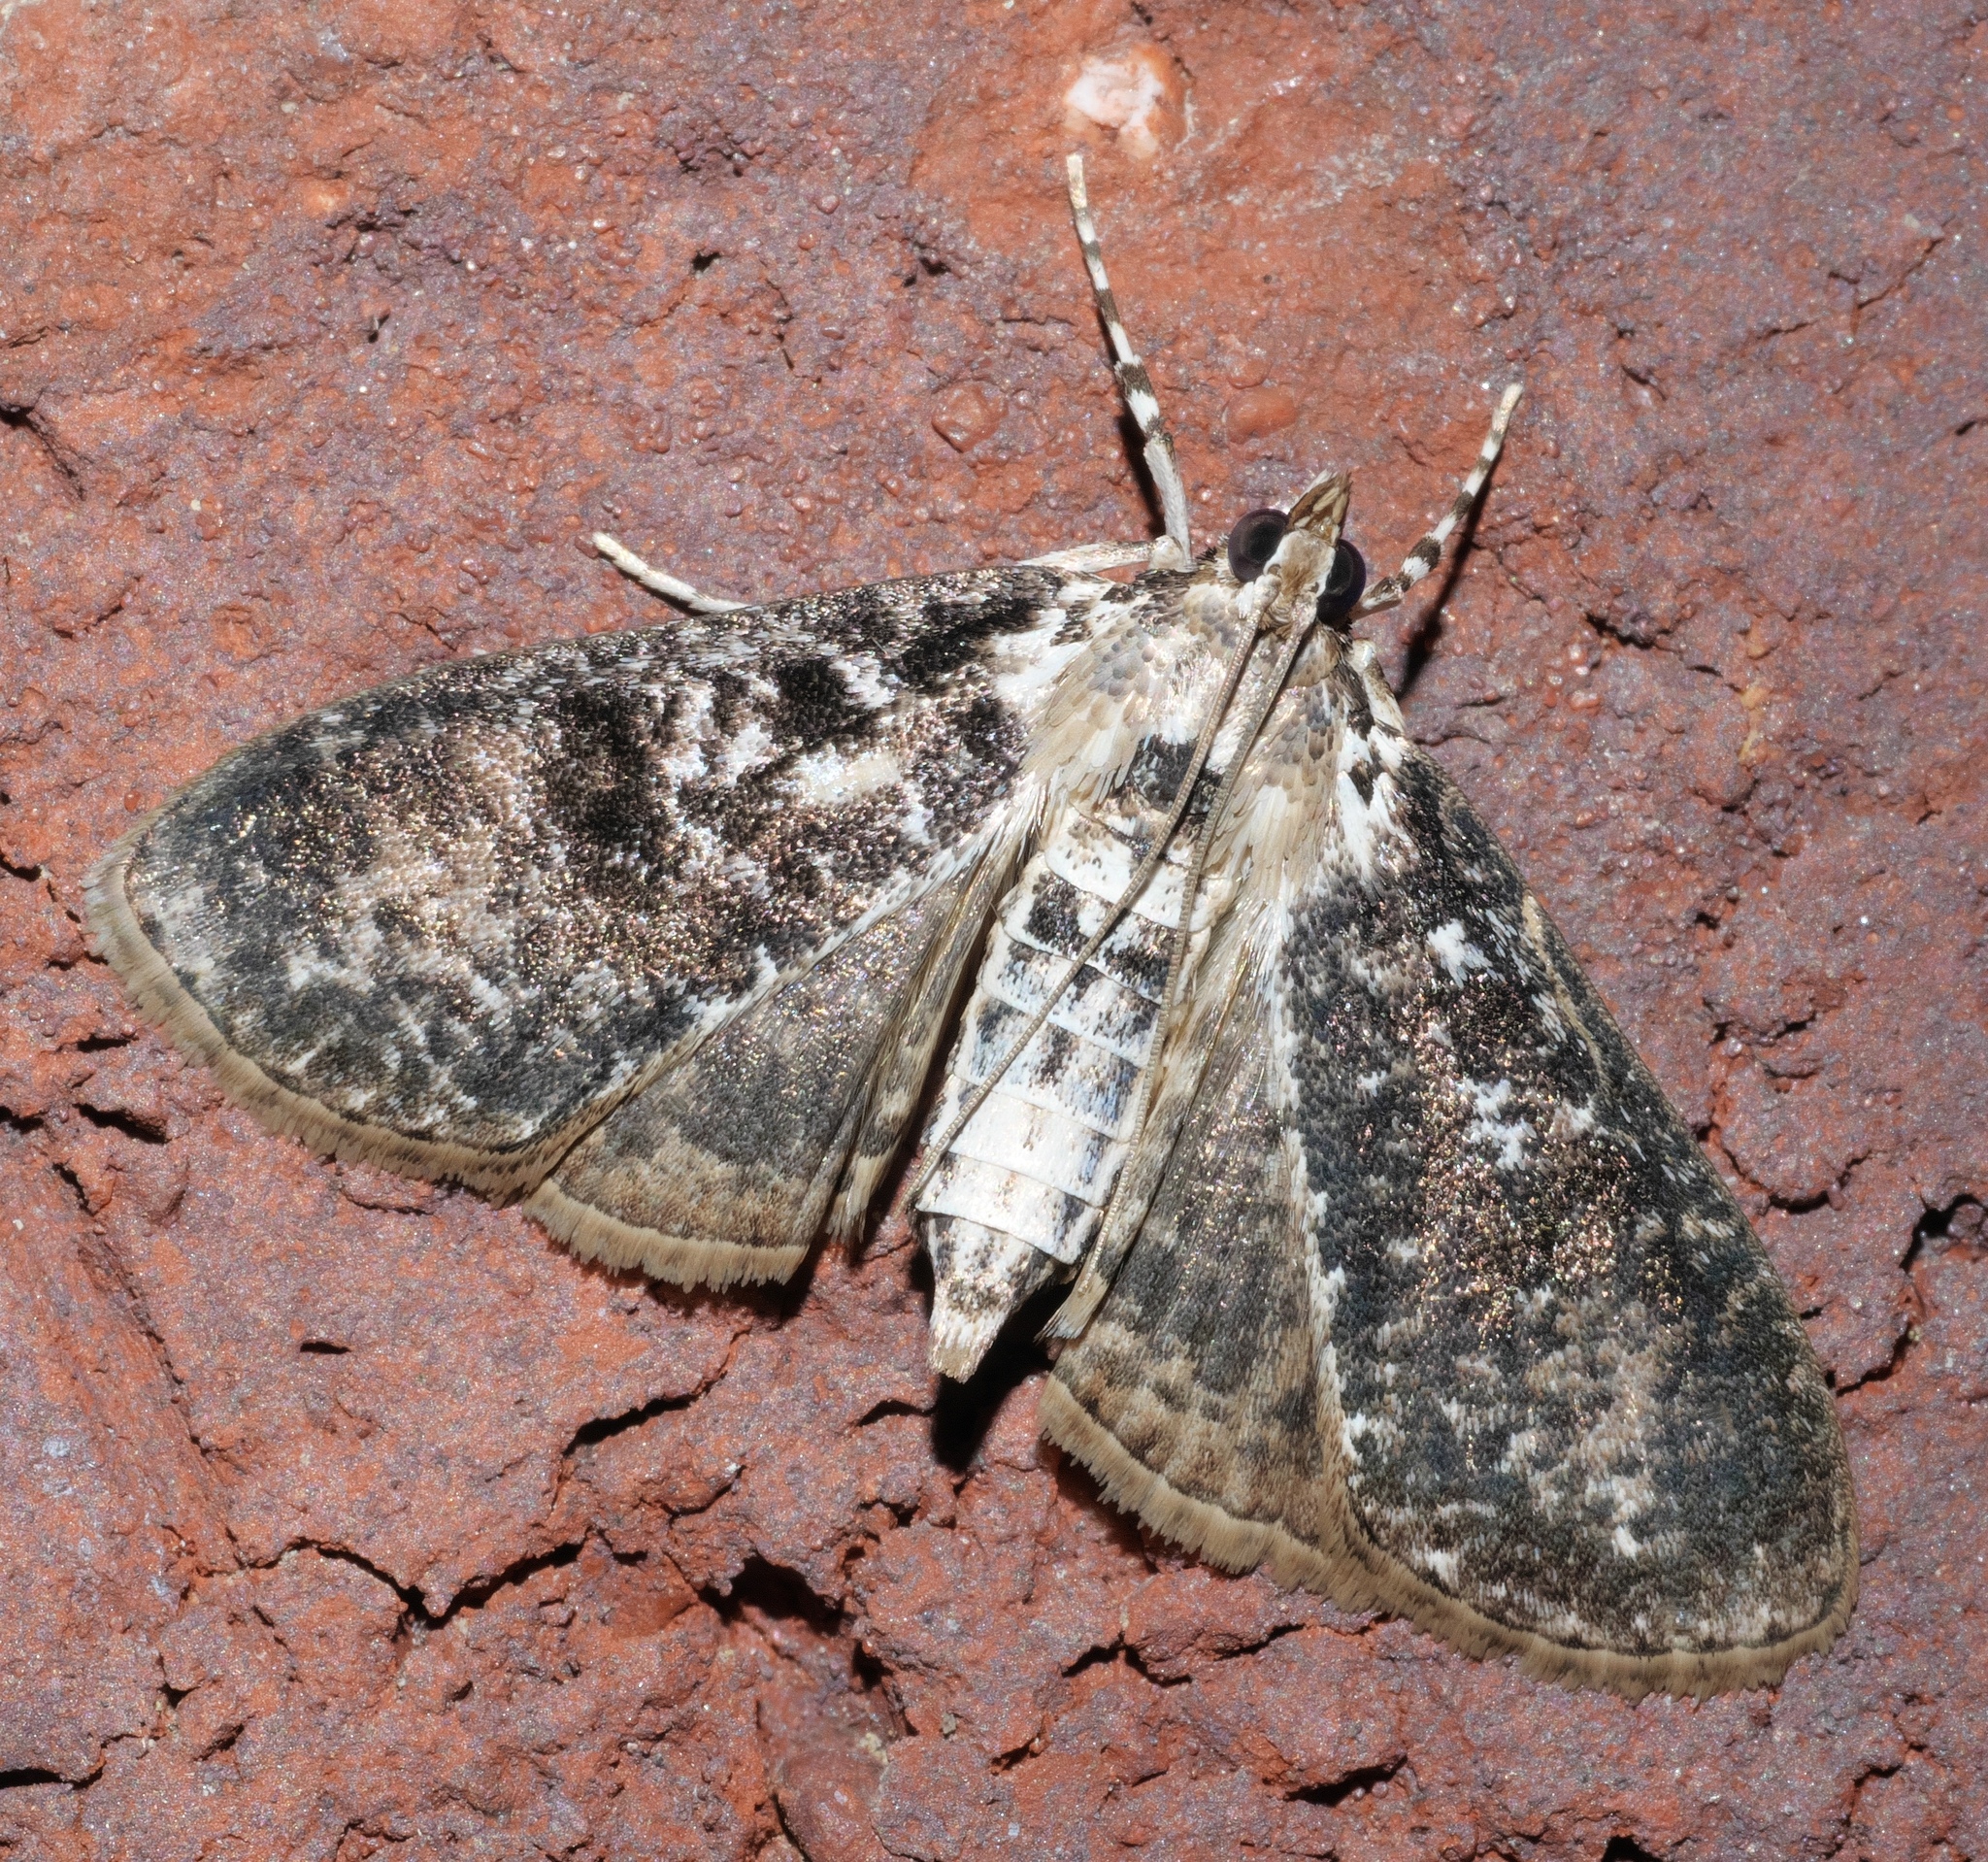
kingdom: Animalia
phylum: Arthropoda
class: Insecta
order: Lepidoptera
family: Crambidae
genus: Palpita
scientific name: Palpita magniferalis
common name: Splendid palpita moth
